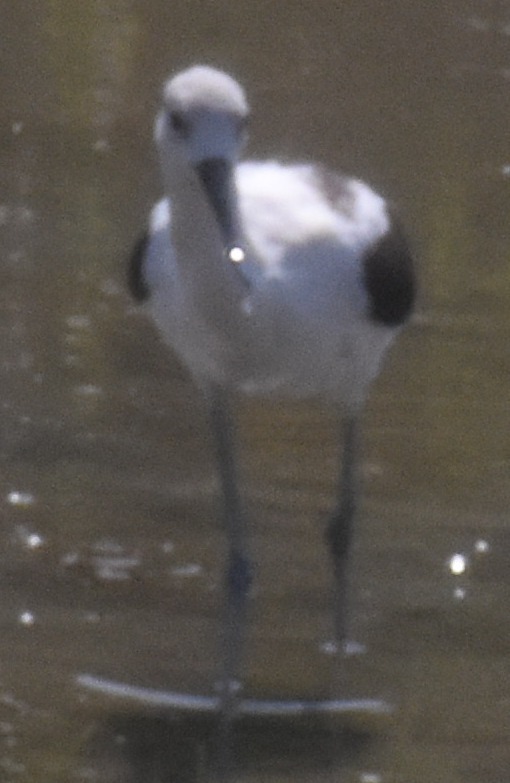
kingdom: Animalia
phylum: Chordata
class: Aves
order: Charadriiformes
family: Recurvirostridae
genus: Recurvirostra
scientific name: Recurvirostra americana
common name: American avocet
